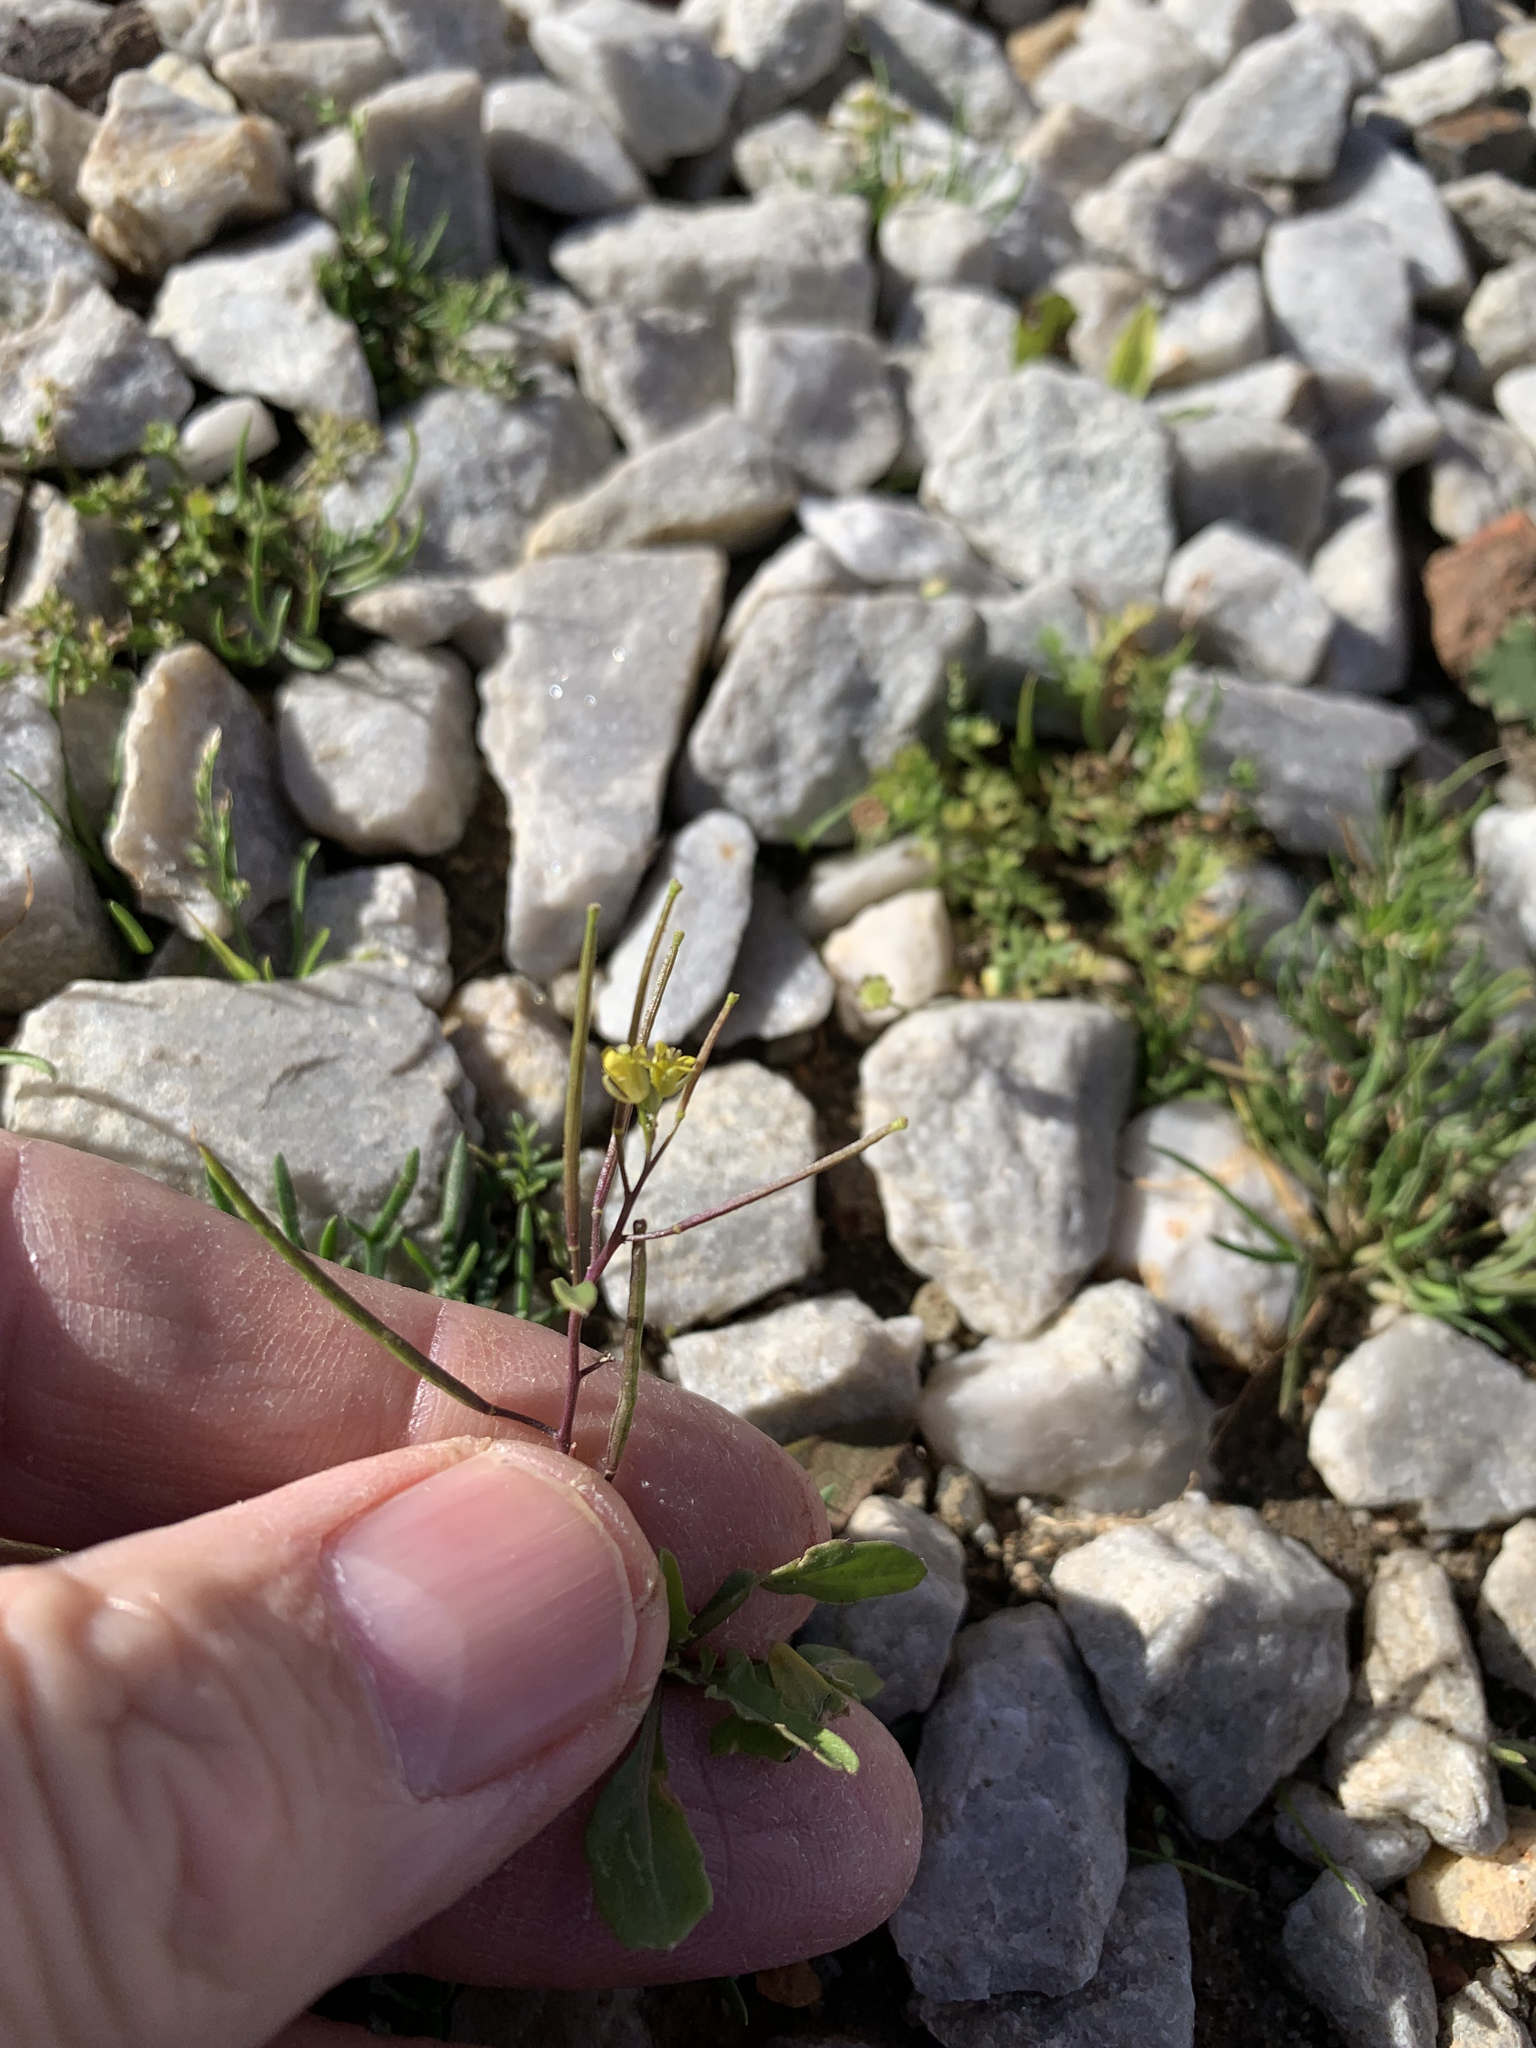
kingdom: Plantae
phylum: Tracheophyta
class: Magnoliopsida
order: Brassicales
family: Brassicaceae
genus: Sisymbrium
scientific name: Sisymbrium irio
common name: London rocket
